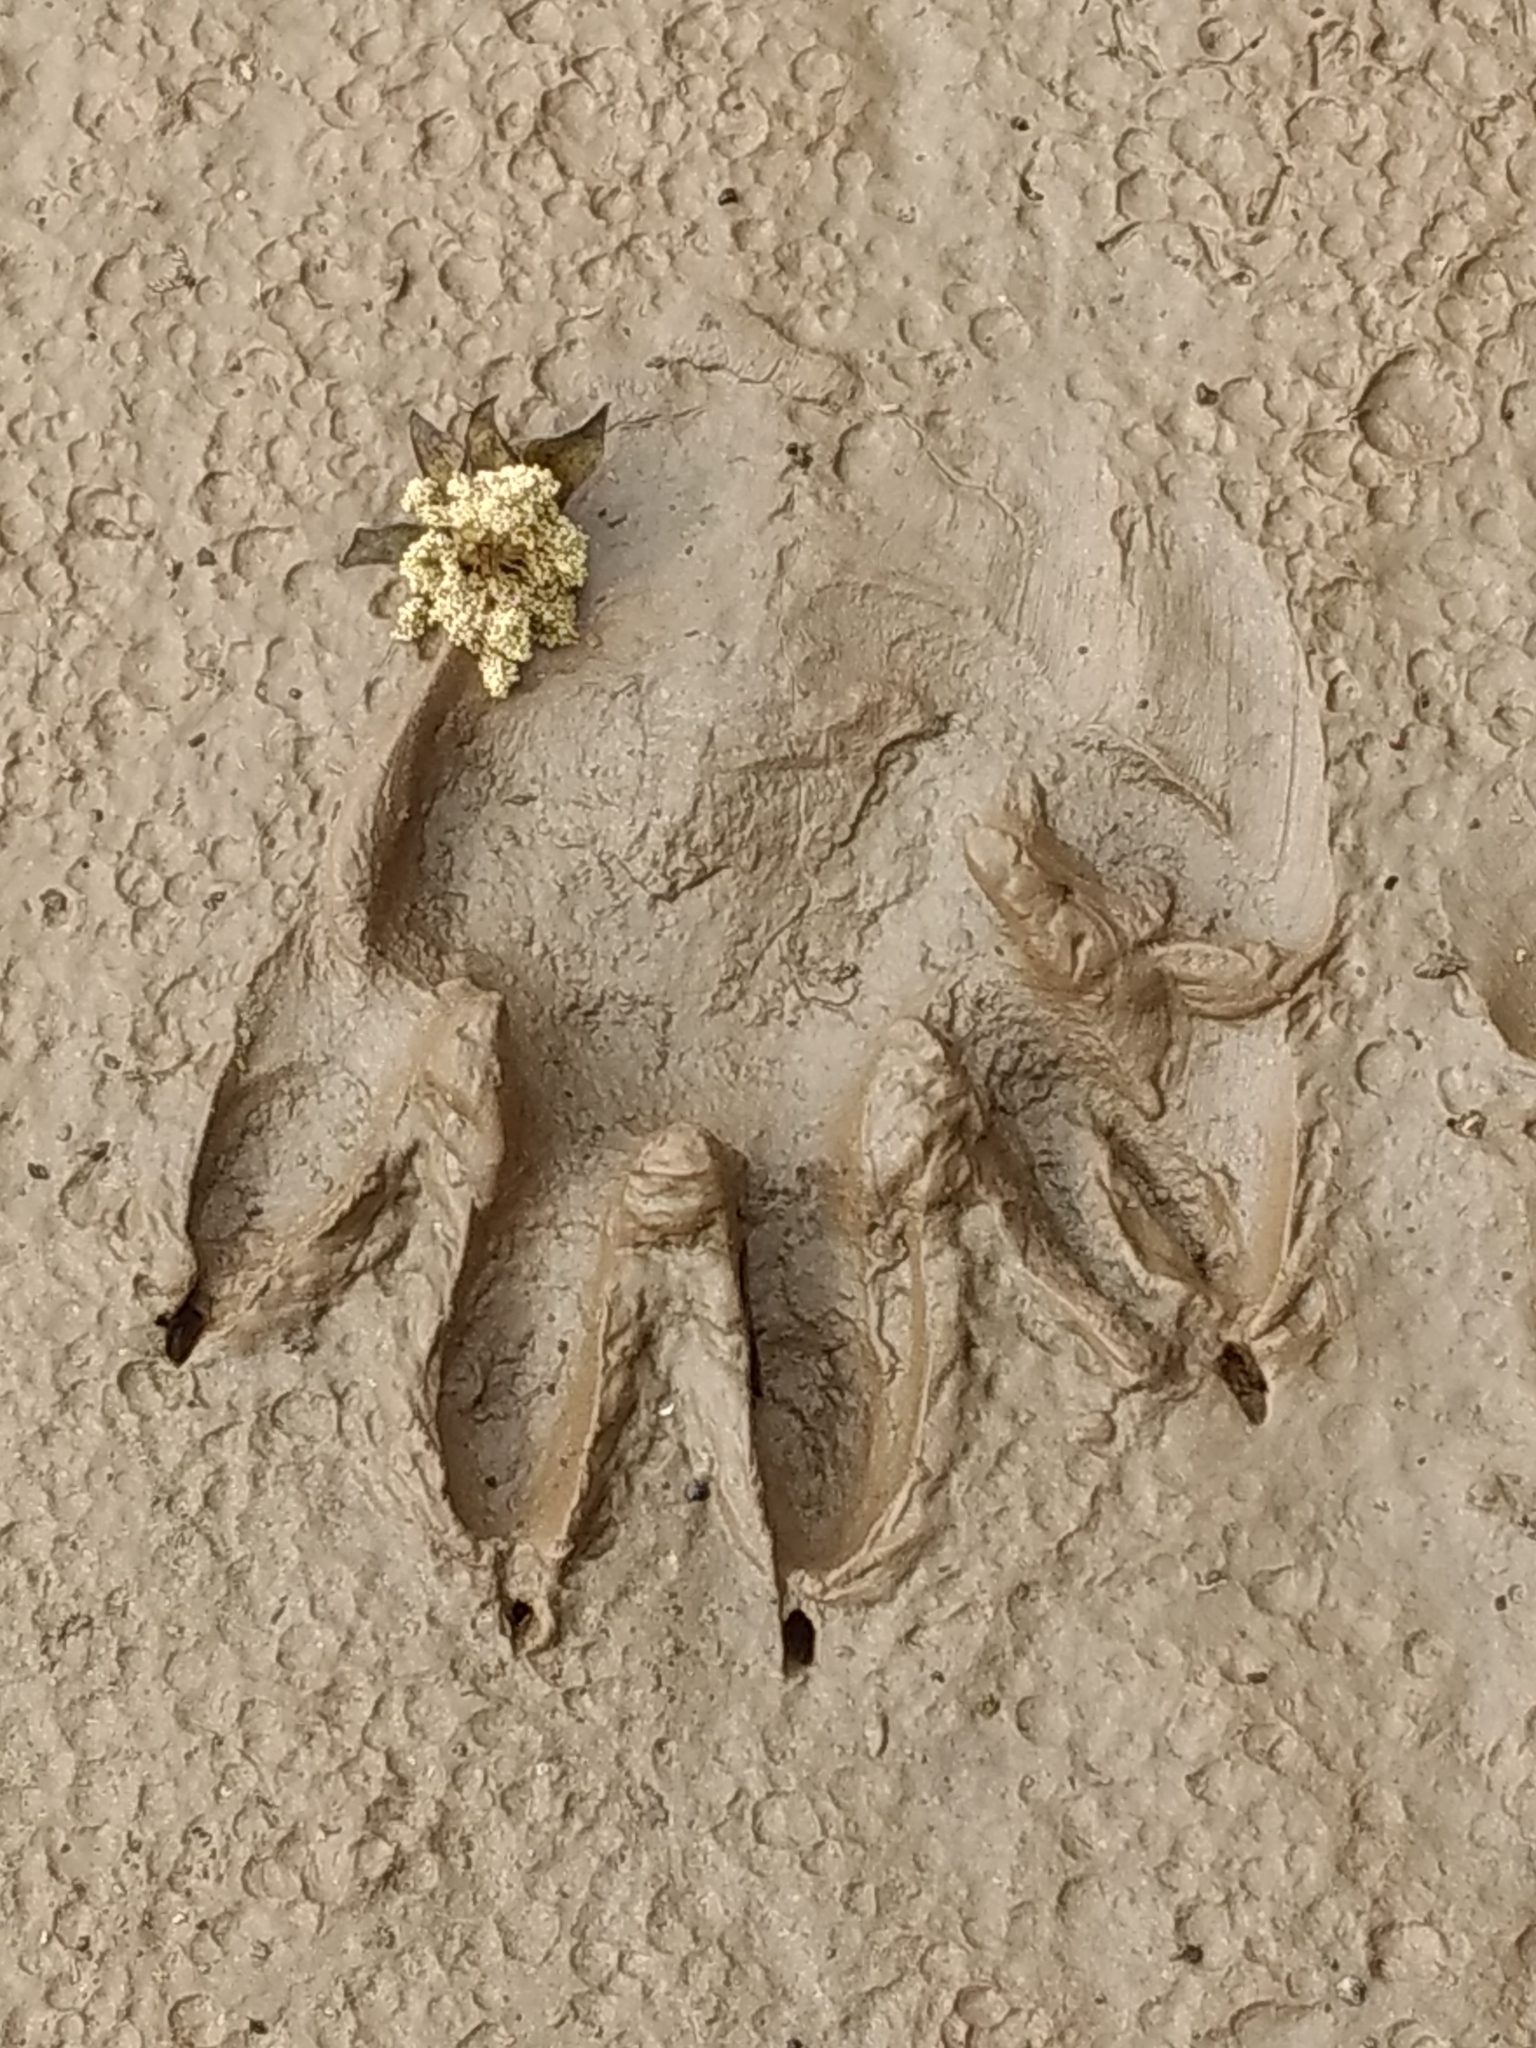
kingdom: Animalia
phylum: Chordata
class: Mammalia
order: Carnivora
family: Procyonidae
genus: Procyon
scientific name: Procyon lotor
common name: Raccoon
